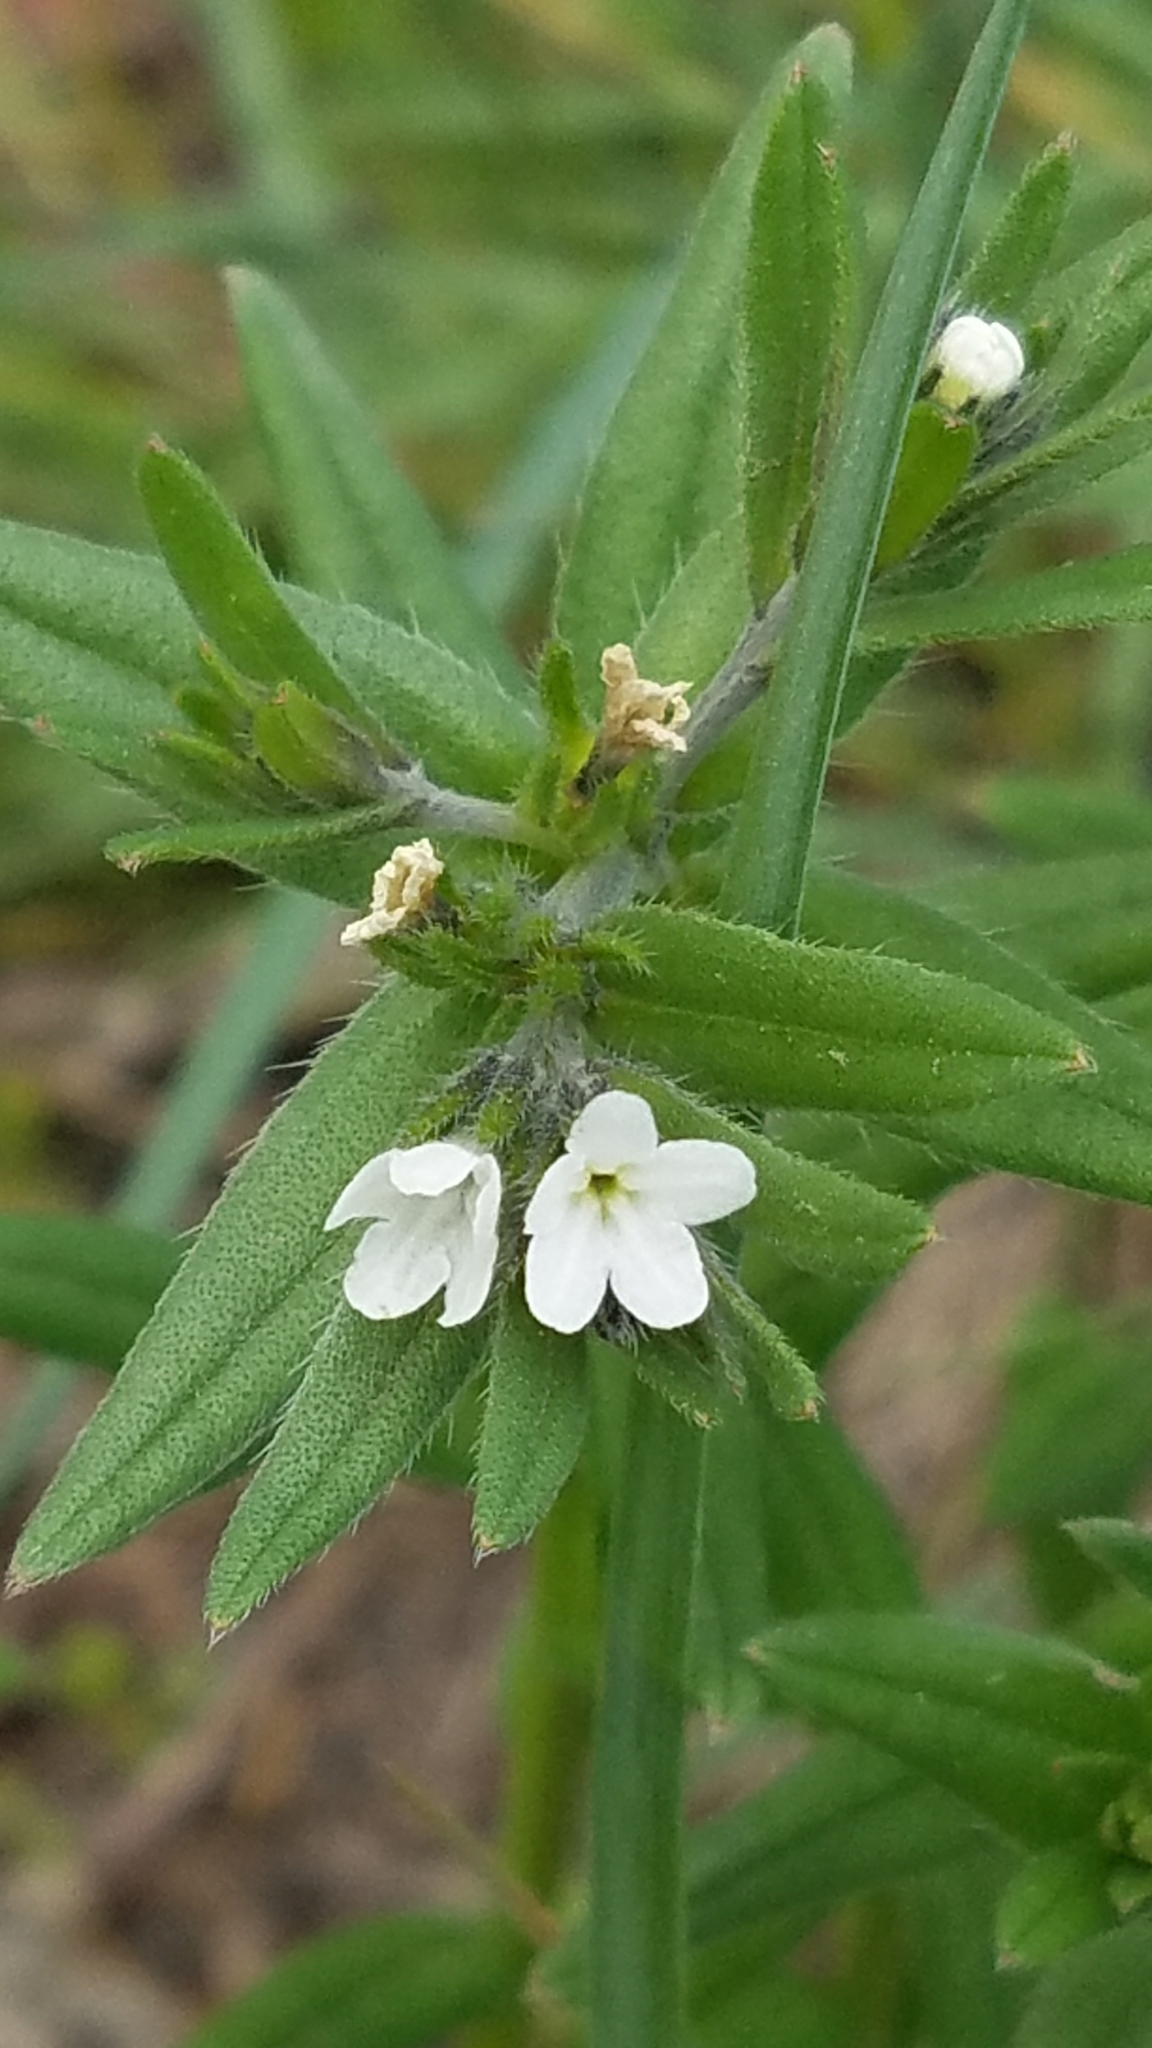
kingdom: Plantae
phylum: Tracheophyta
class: Magnoliopsida
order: Boraginales
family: Boraginaceae
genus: Buglossoides
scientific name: Buglossoides arvensis
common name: Corn gromwell
